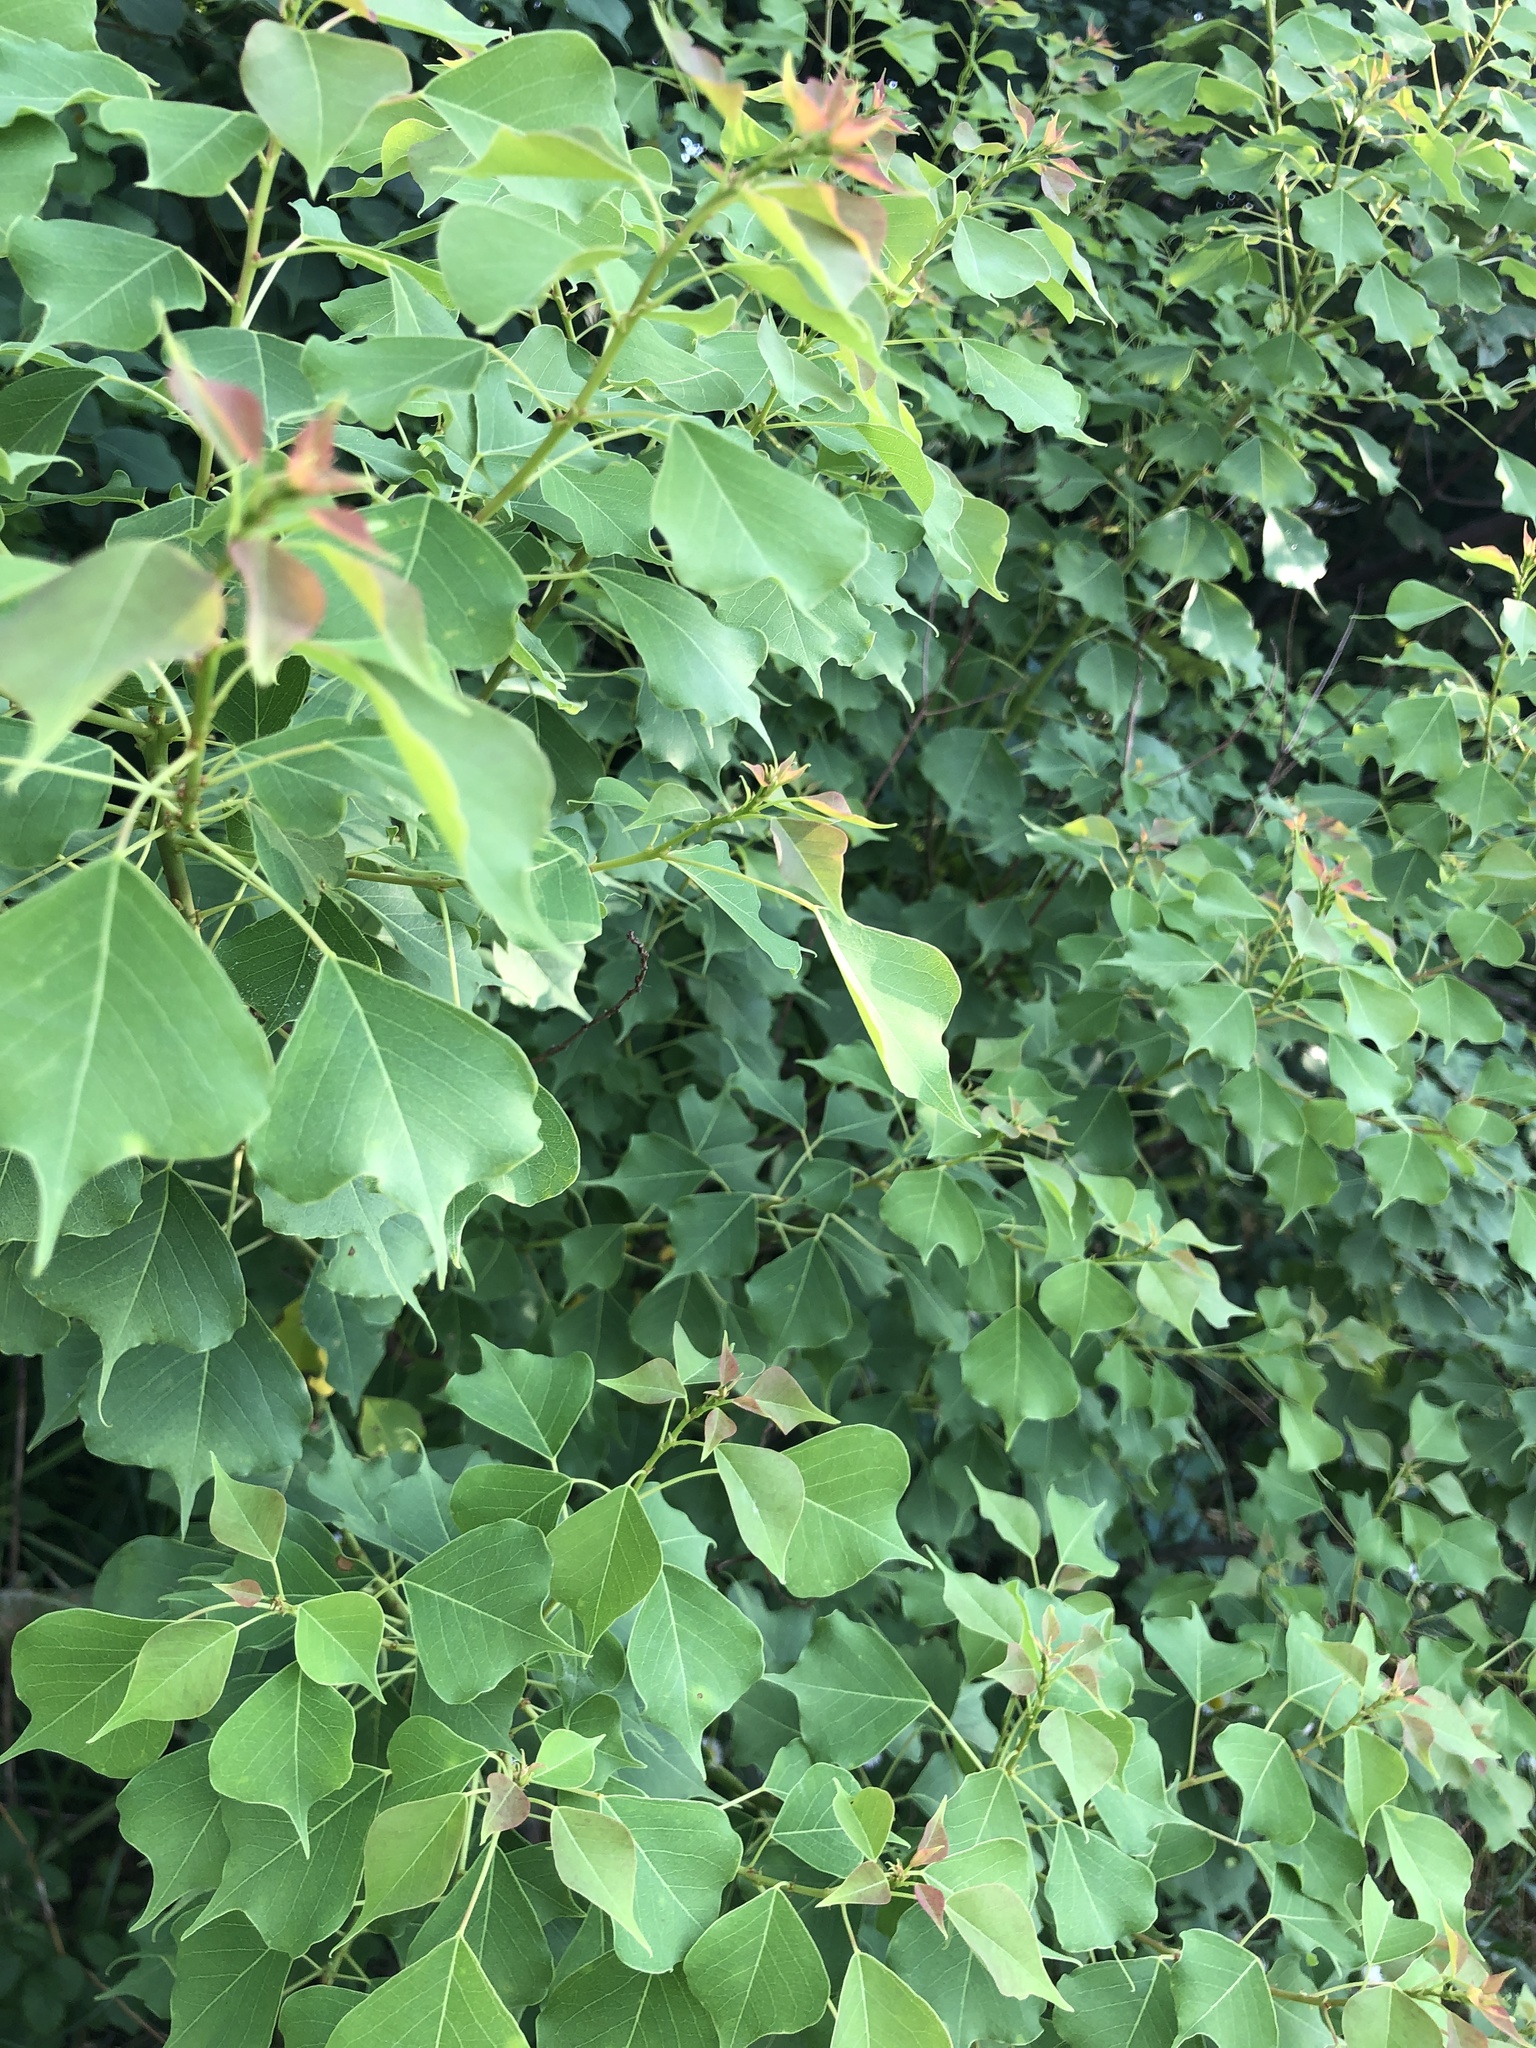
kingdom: Plantae
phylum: Tracheophyta
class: Magnoliopsida
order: Malpighiales
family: Euphorbiaceae
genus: Triadica
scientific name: Triadica sebifera
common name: Chinese tallow
